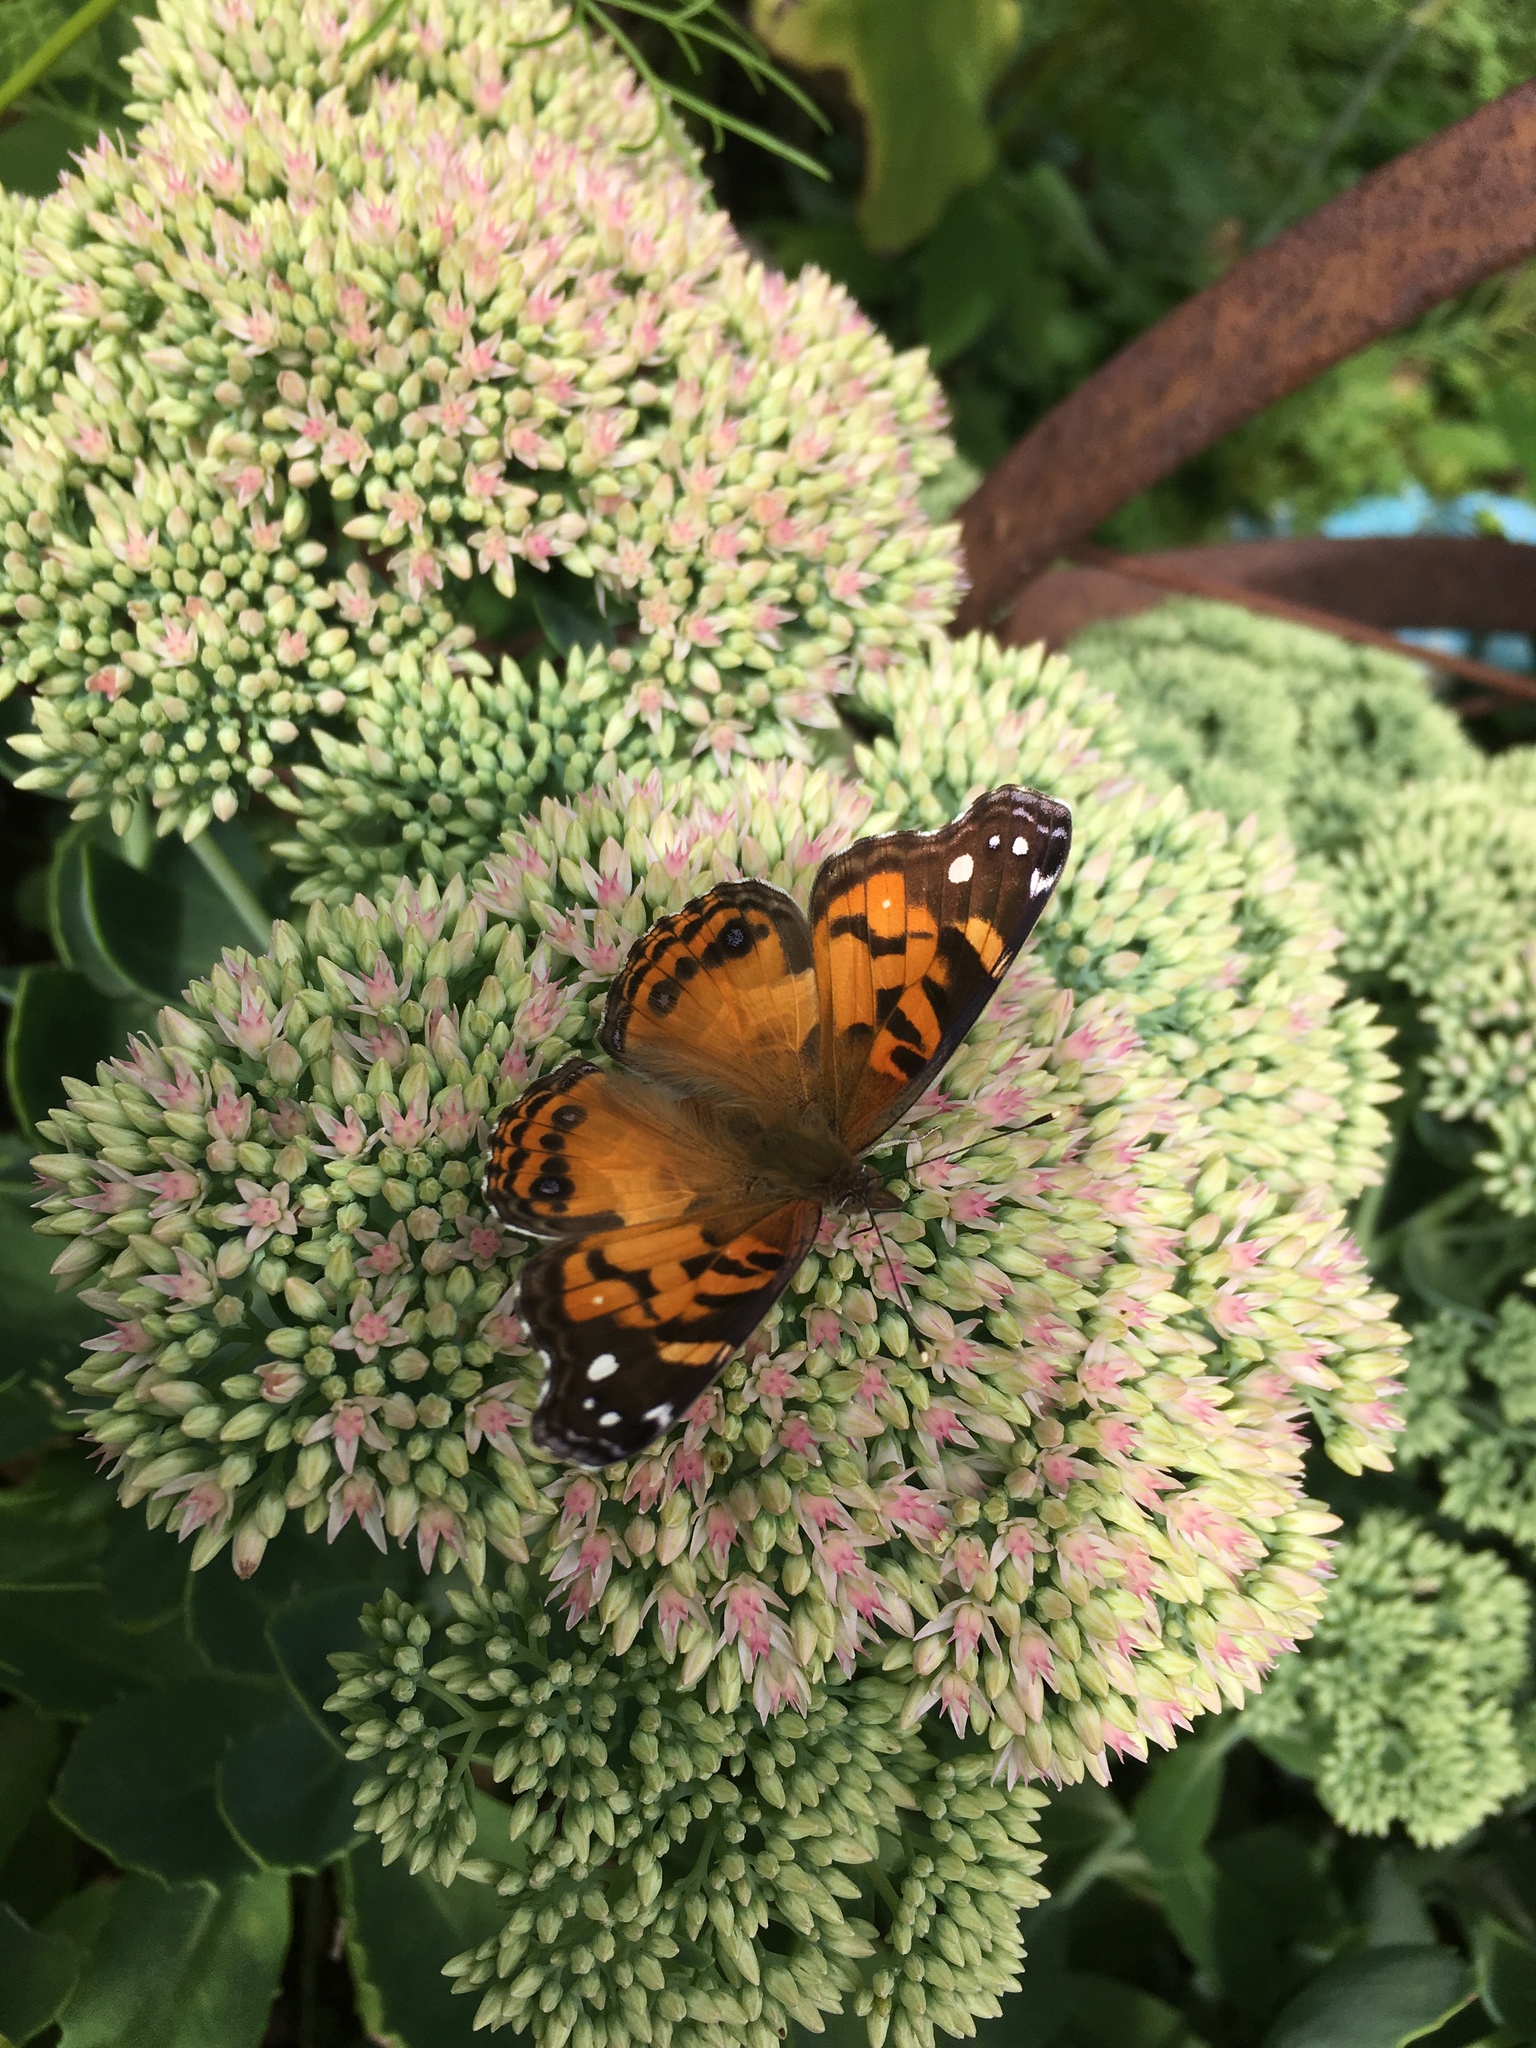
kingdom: Animalia
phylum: Arthropoda
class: Insecta
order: Lepidoptera
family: Nymphalidae
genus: Vanessa
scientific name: Vanessa virginiensis
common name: American lady
